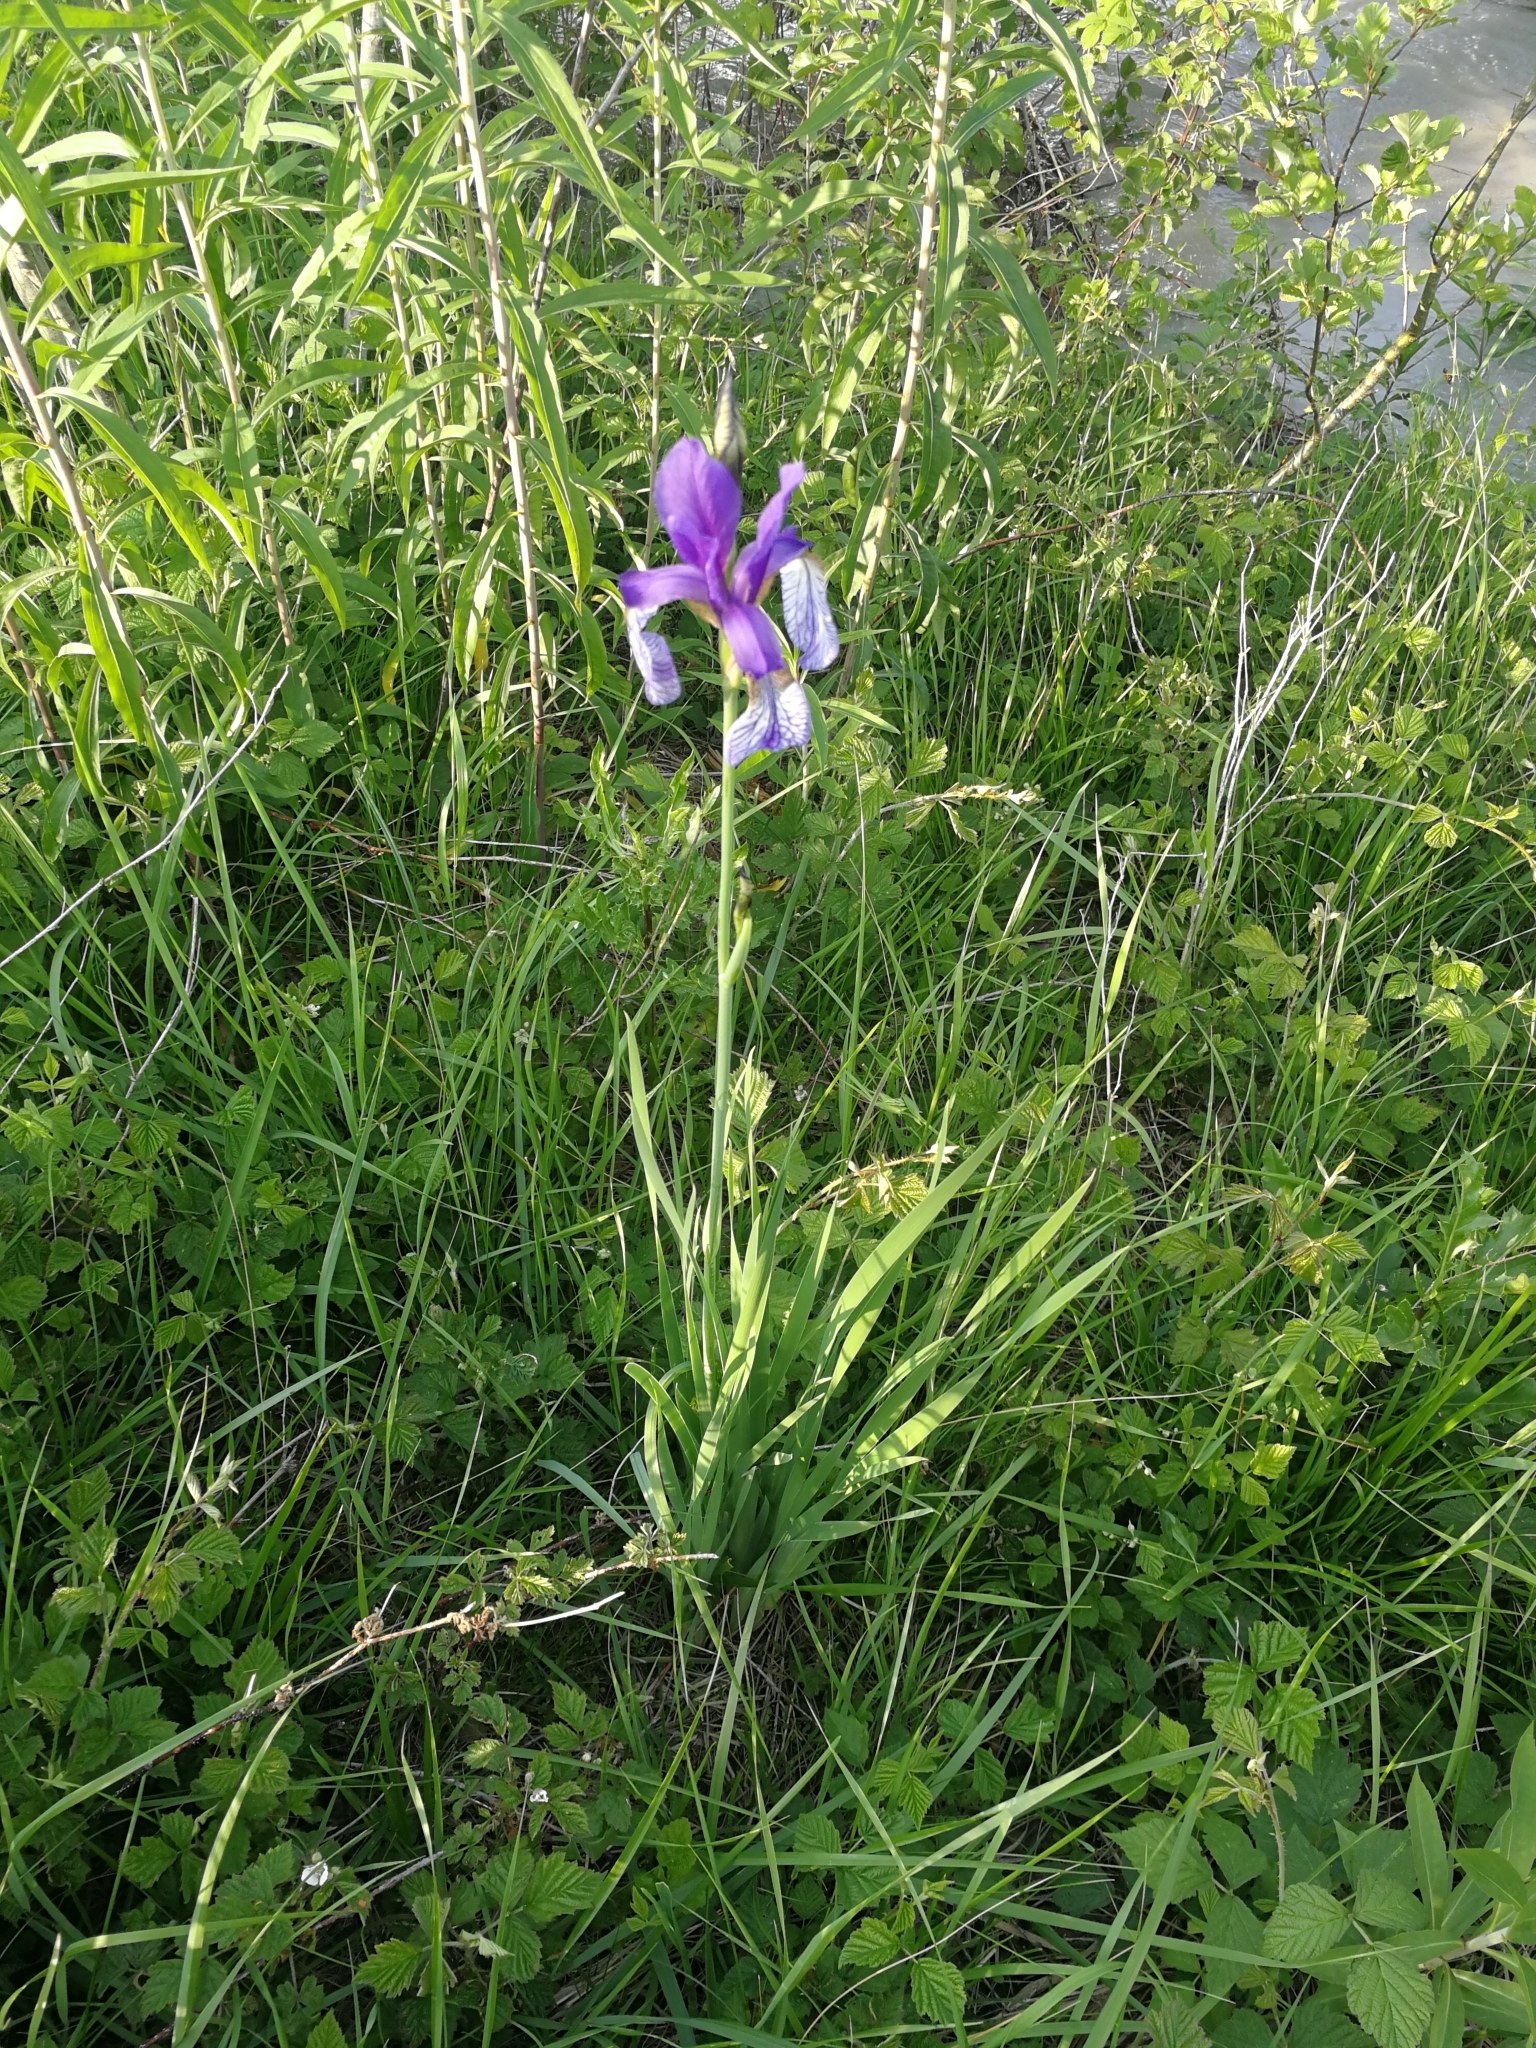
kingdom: Plantae
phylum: Tracheophyta
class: Liliopsida
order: Asparagales
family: Iridaceae
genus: Iris
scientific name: Iris sibirica
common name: Siberian iris
